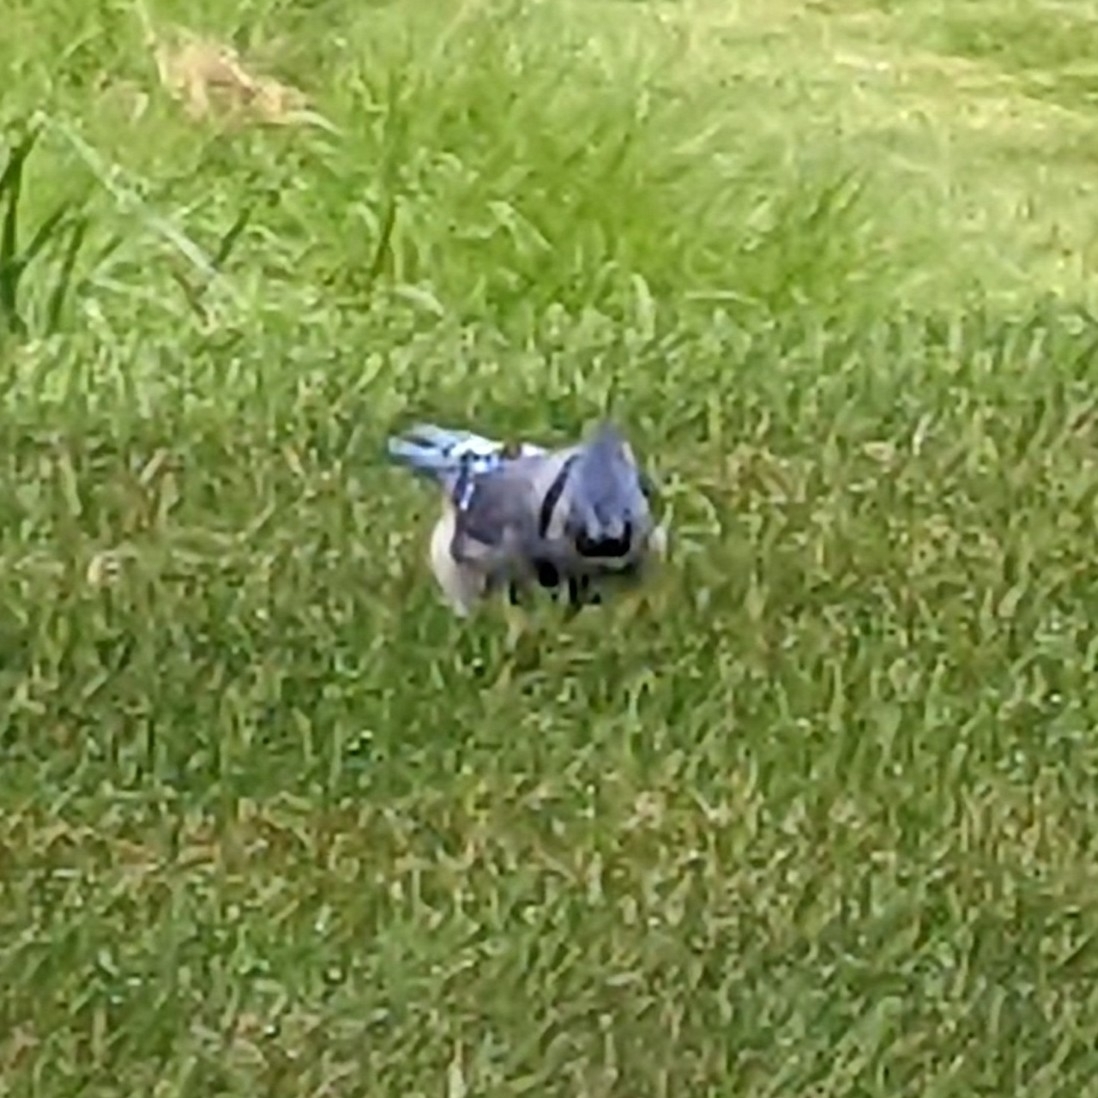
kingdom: Animalia
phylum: Chordata
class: Aves
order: Passeriformes
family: Corvidae
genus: Cyanocitta
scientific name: Cyanocitta cristata
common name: Blue jay
